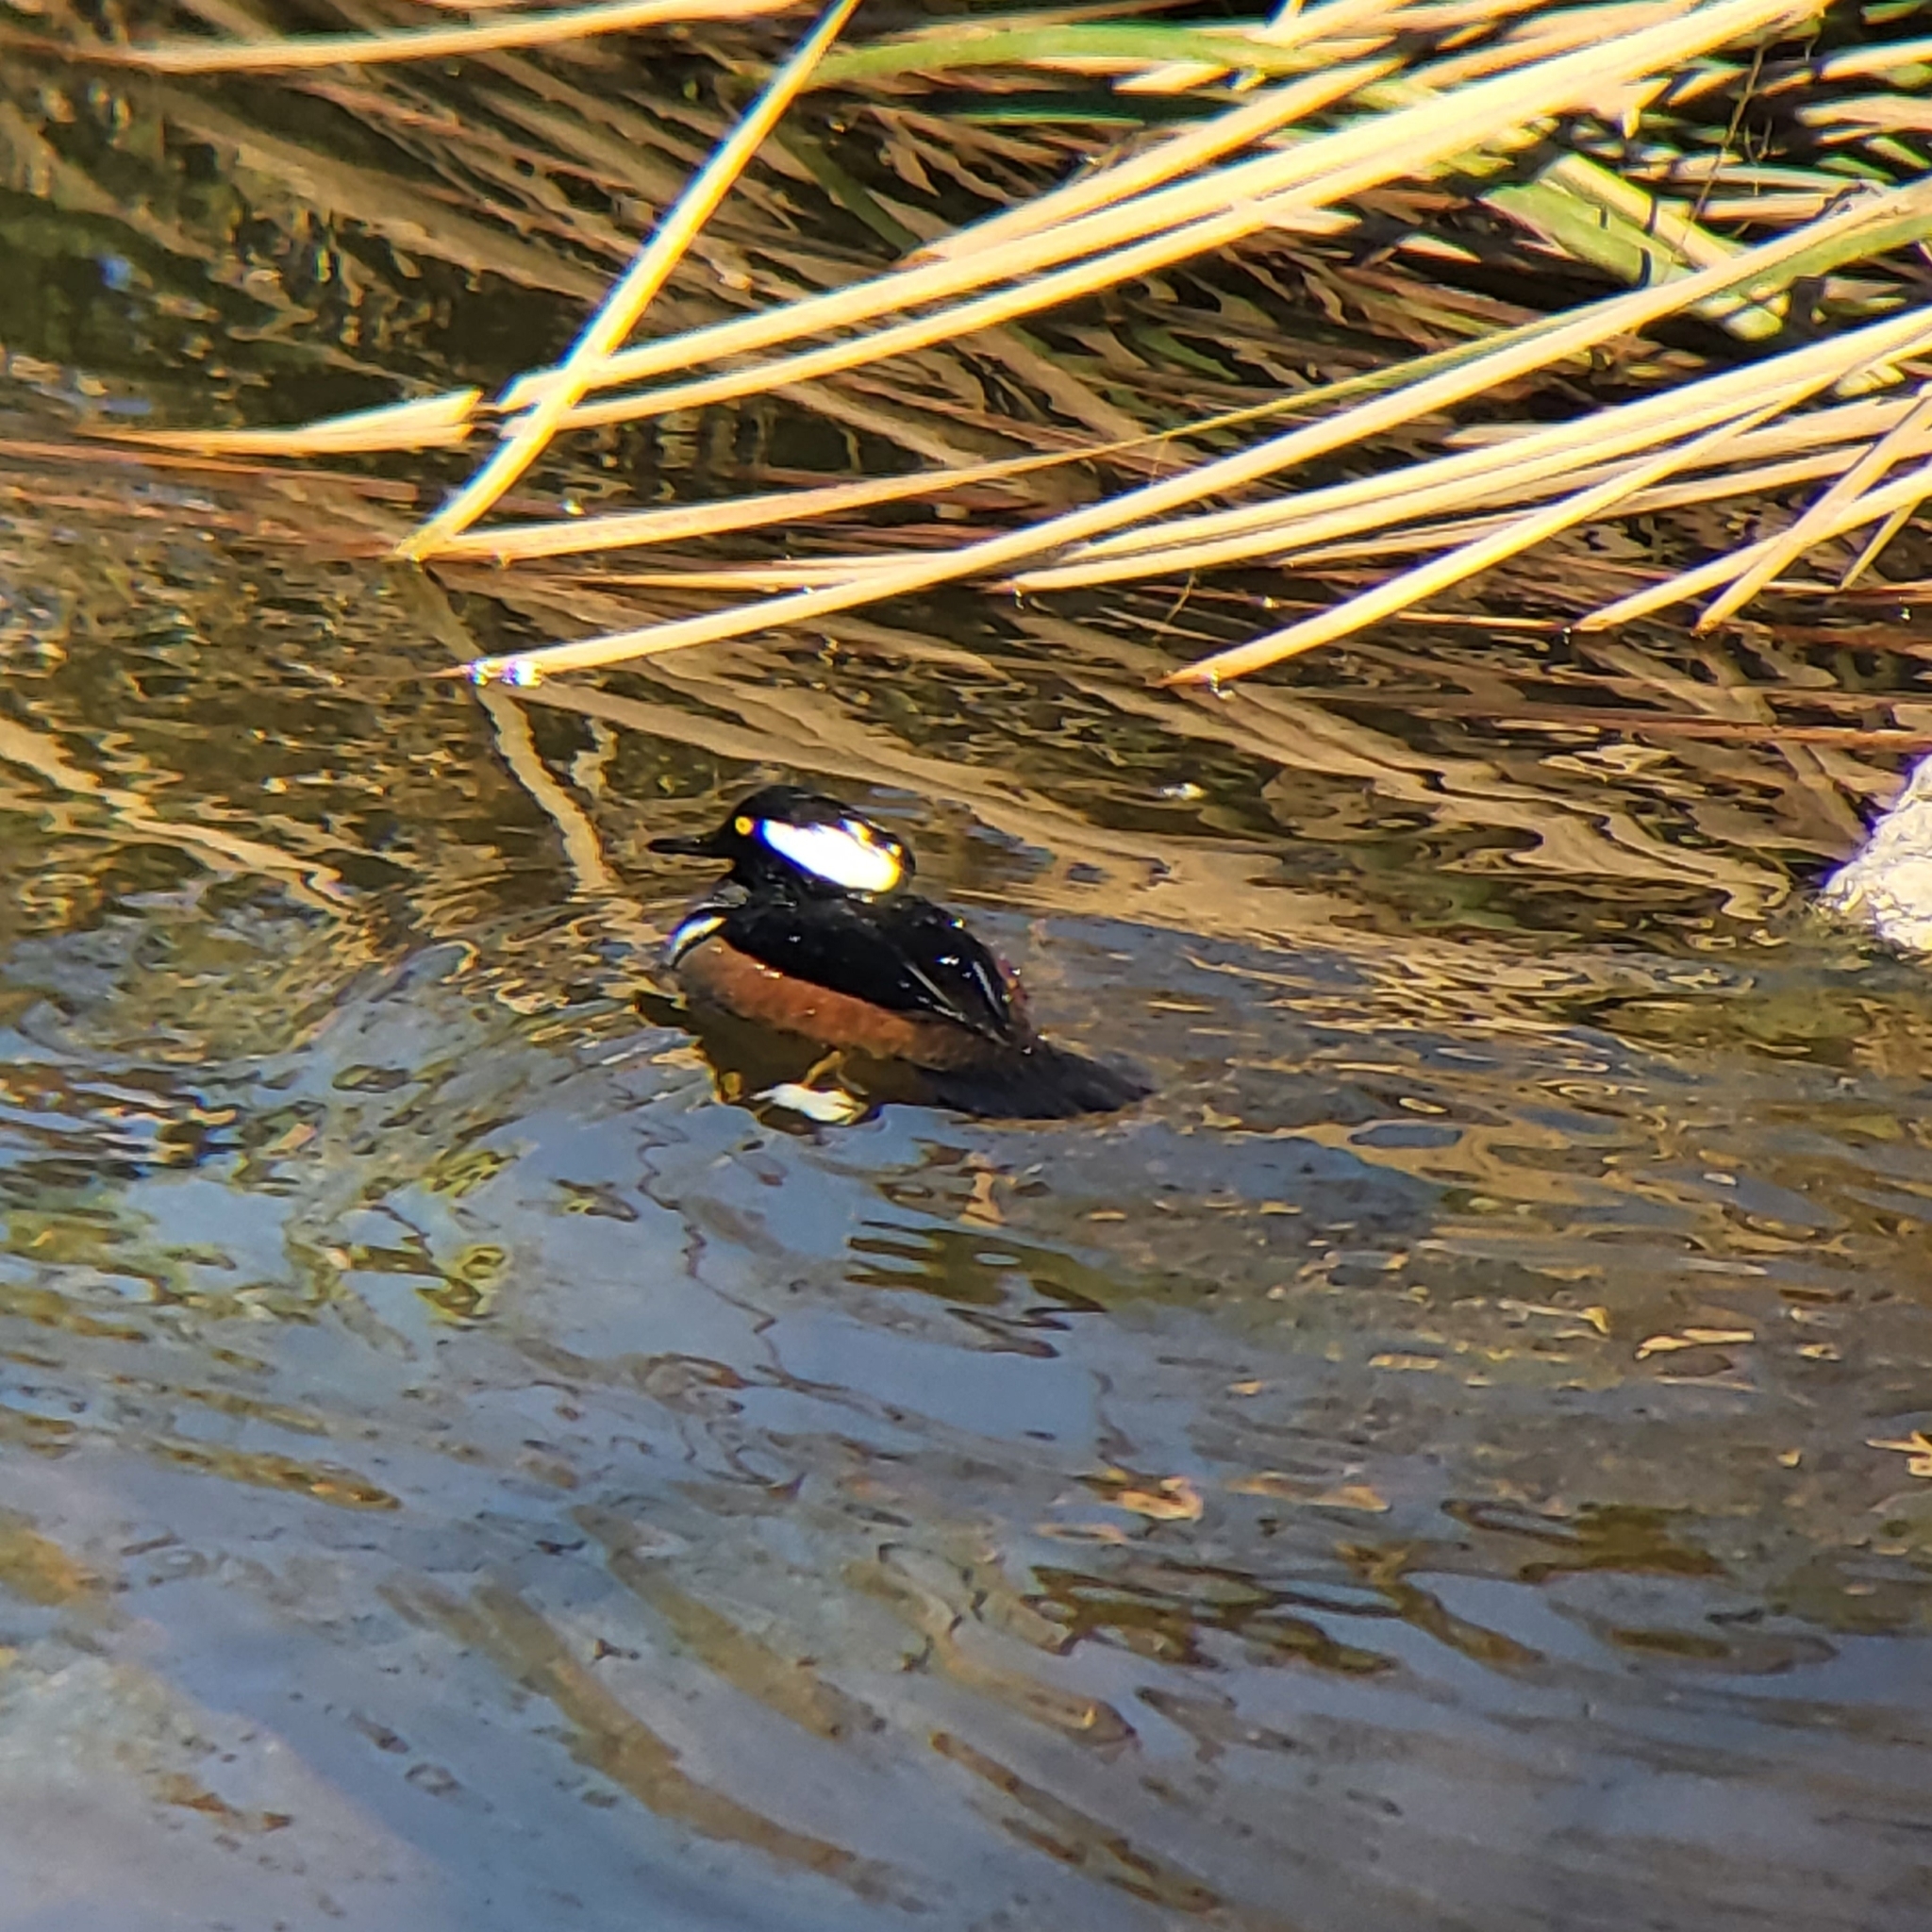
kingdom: Animalia
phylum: Chordata
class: Aves
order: Anseriformes
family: Anatidae
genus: Lophodytes
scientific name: Lophodytes cucullatus
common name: Hooded merganser
